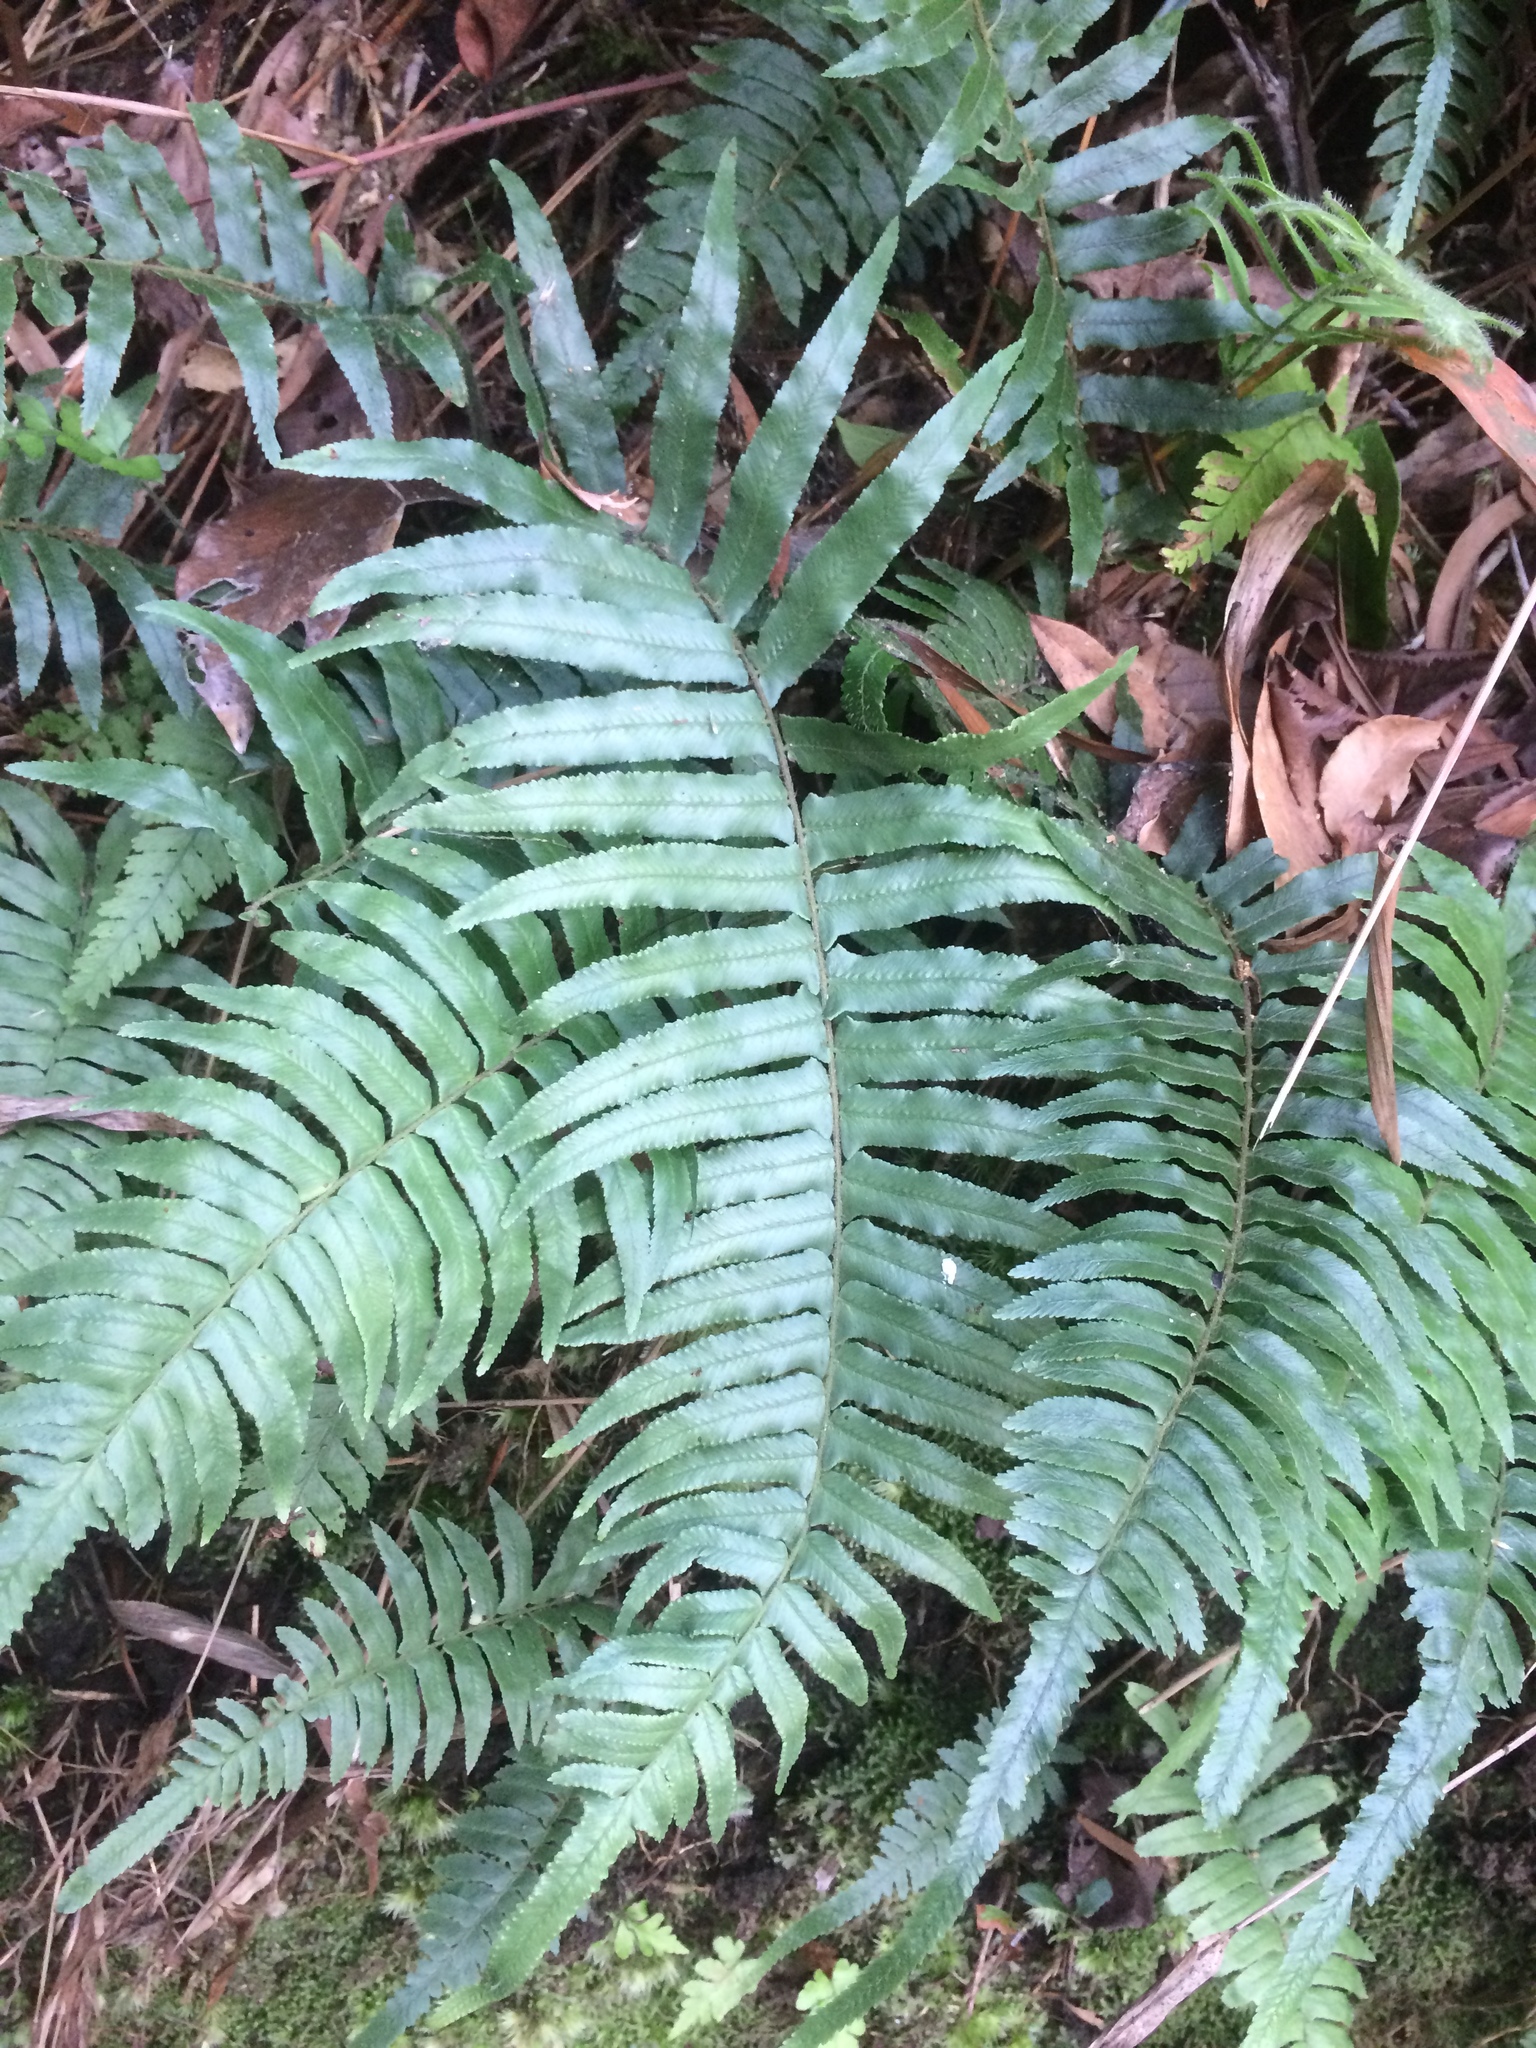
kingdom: Plantae
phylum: Tracheophyta
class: Polypodiopsida
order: Polypodiales
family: Dennstaedtiaceae
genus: Microlepia
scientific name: Microlepia hookeriana
